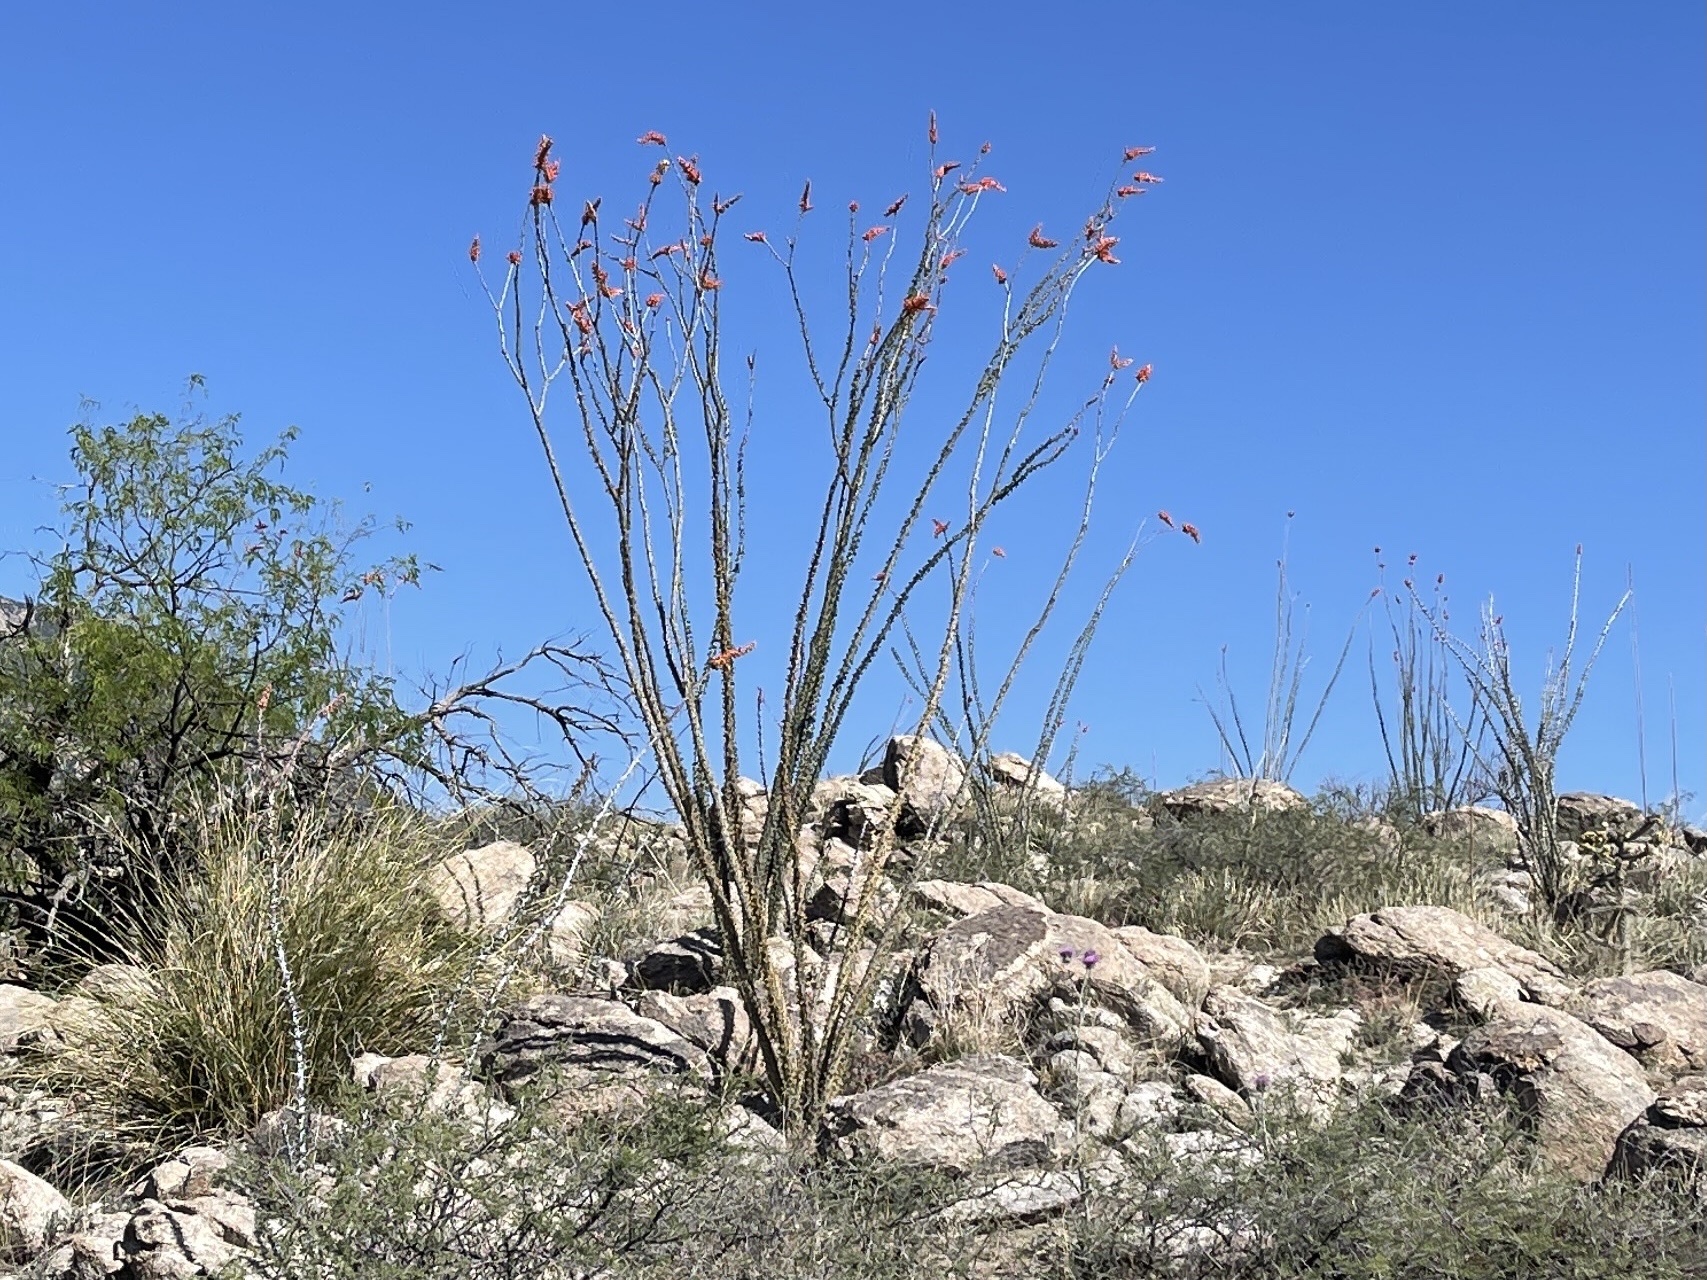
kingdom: Plantae
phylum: Tracheophyta
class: Magnoliopsida
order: Ericales
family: Fouquieriaceae
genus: Fouquieria
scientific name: Fouquieria splendens
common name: Vine-cactus
